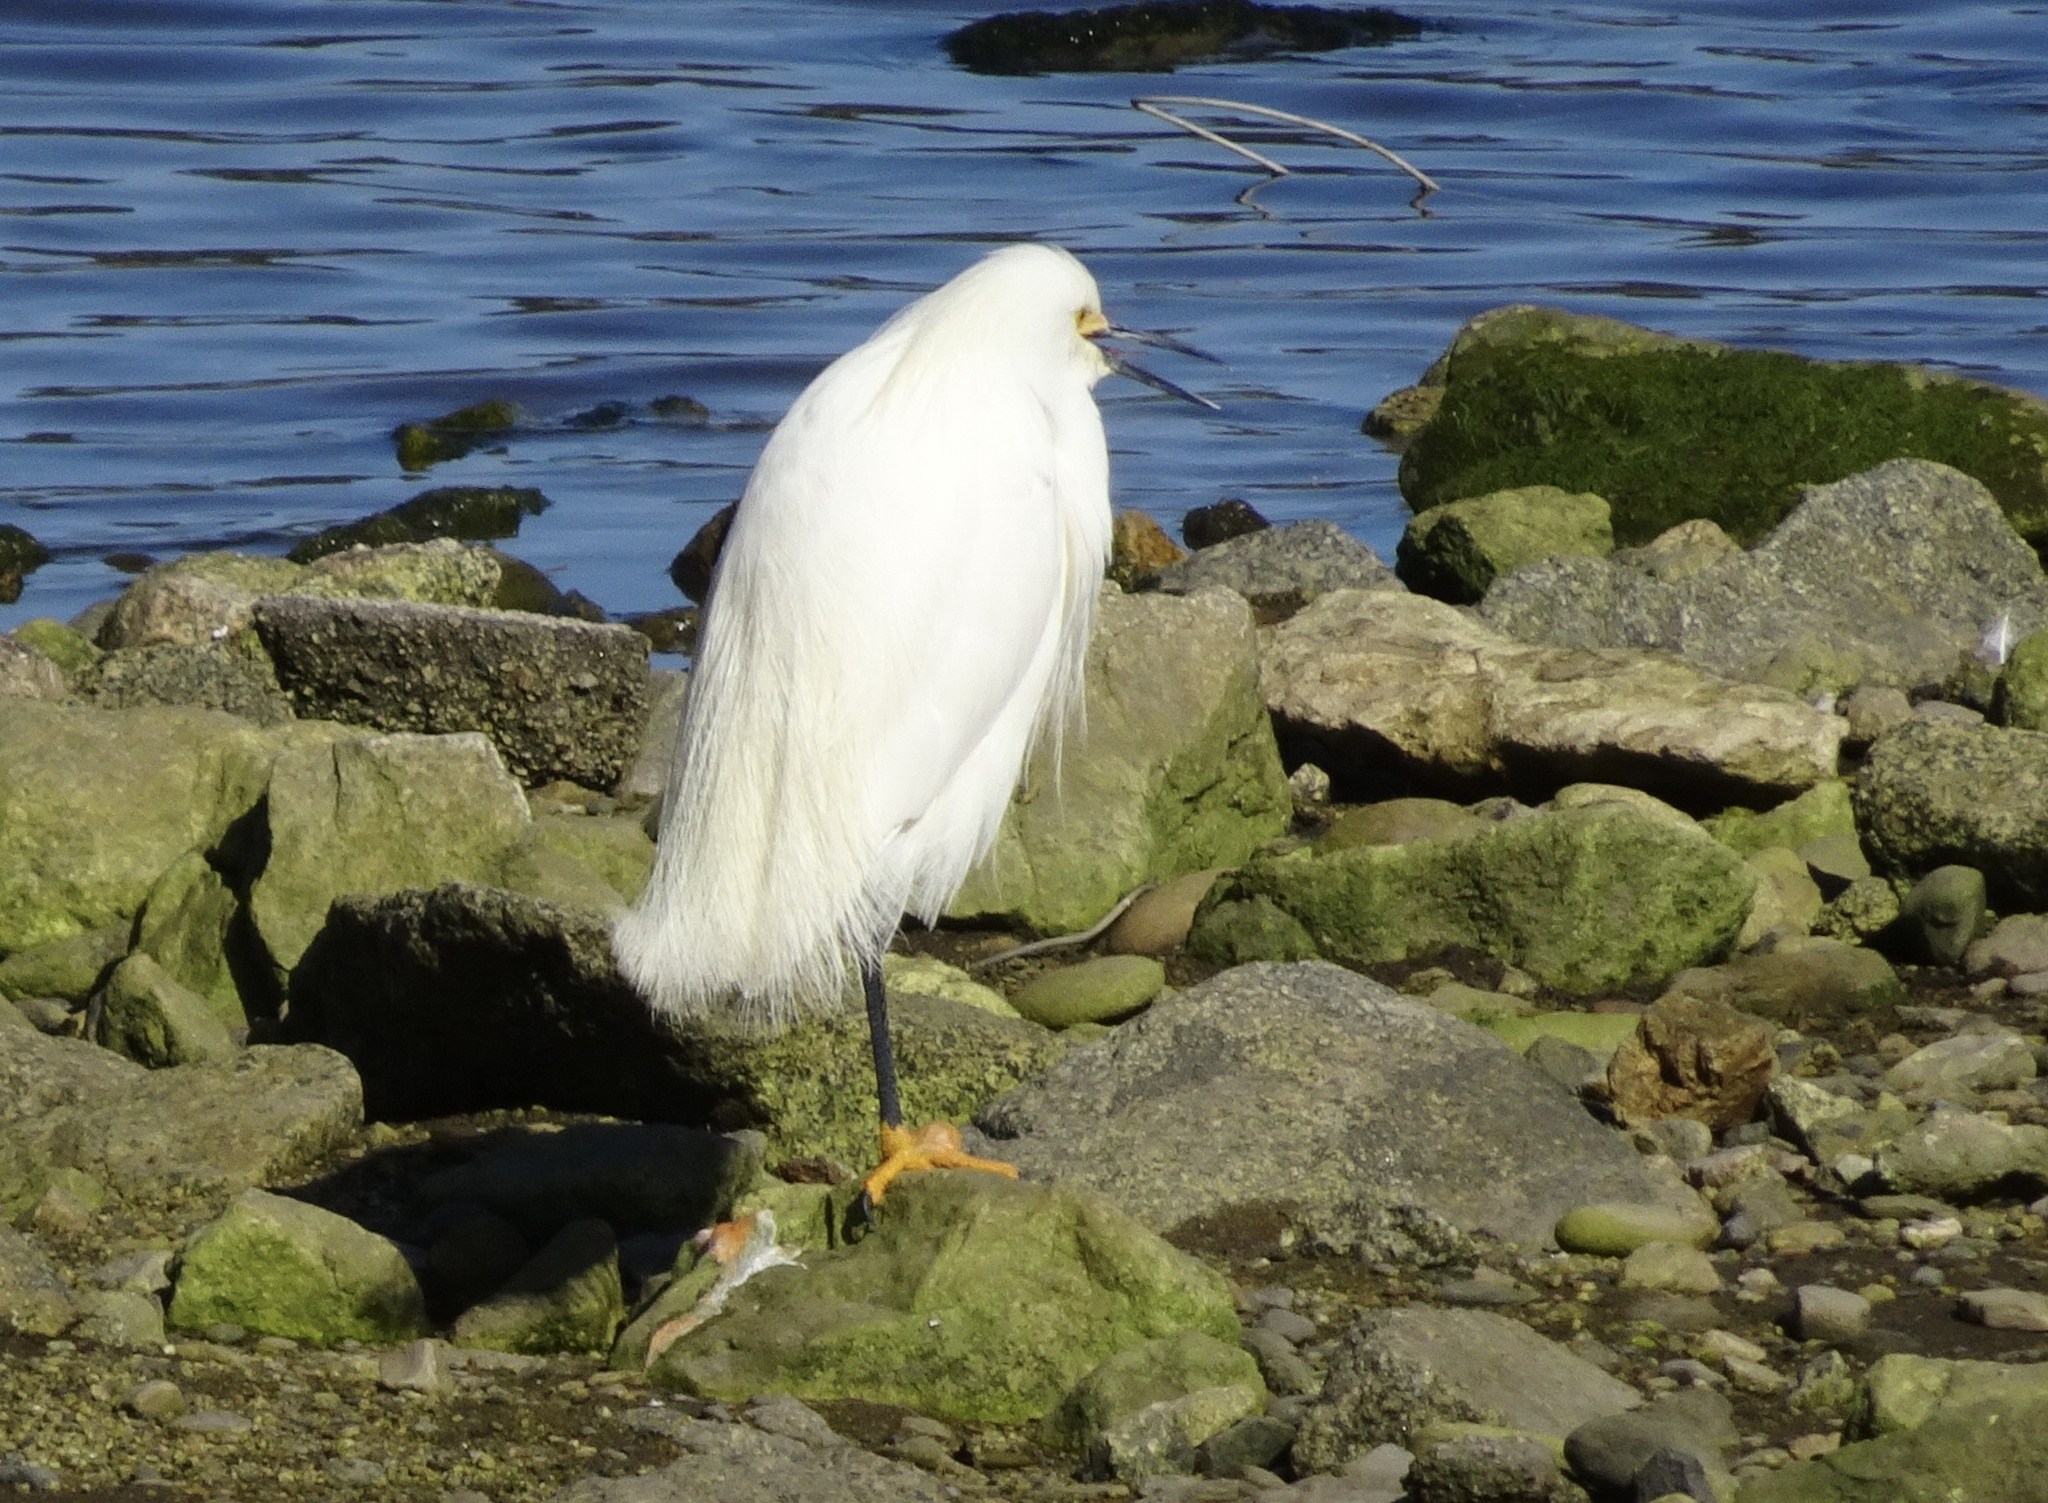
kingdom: Animalia
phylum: Chordata
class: Aves
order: Pelecaniformes
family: Ardeidae
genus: Egretta
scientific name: Egretta thula
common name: Snowy egret
